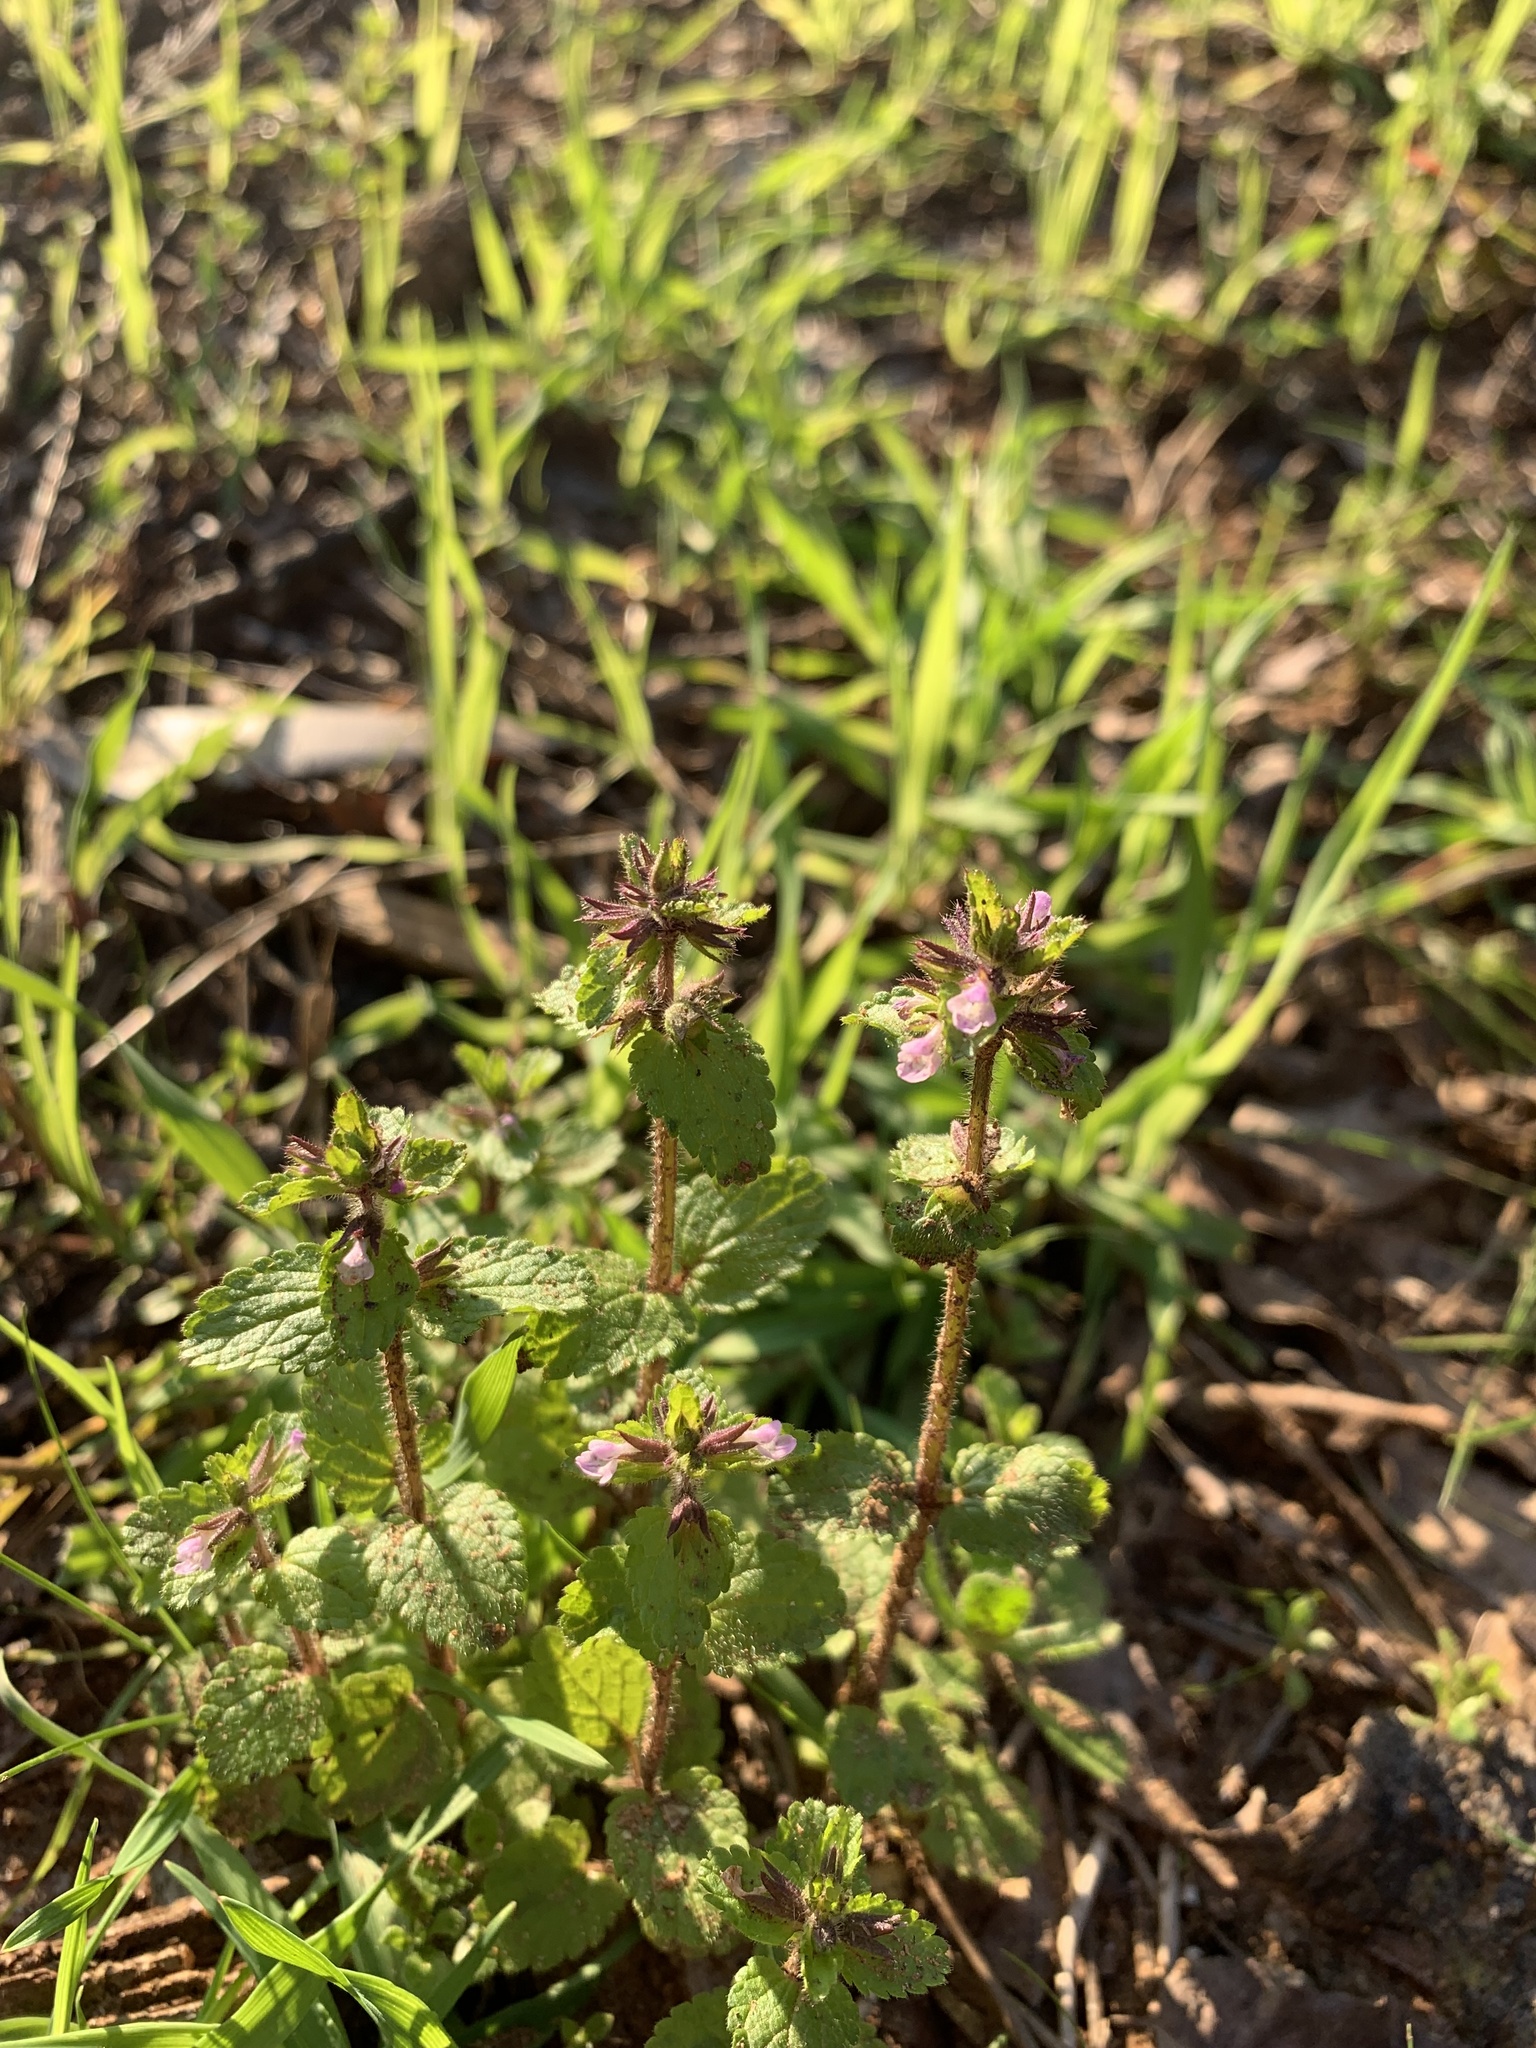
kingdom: Plantae
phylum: Tracheophyta
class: Magnoliopsida
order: Lamiales
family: Lamiaceae
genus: Stachys
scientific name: Stachys arvensis
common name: Field woundwort
